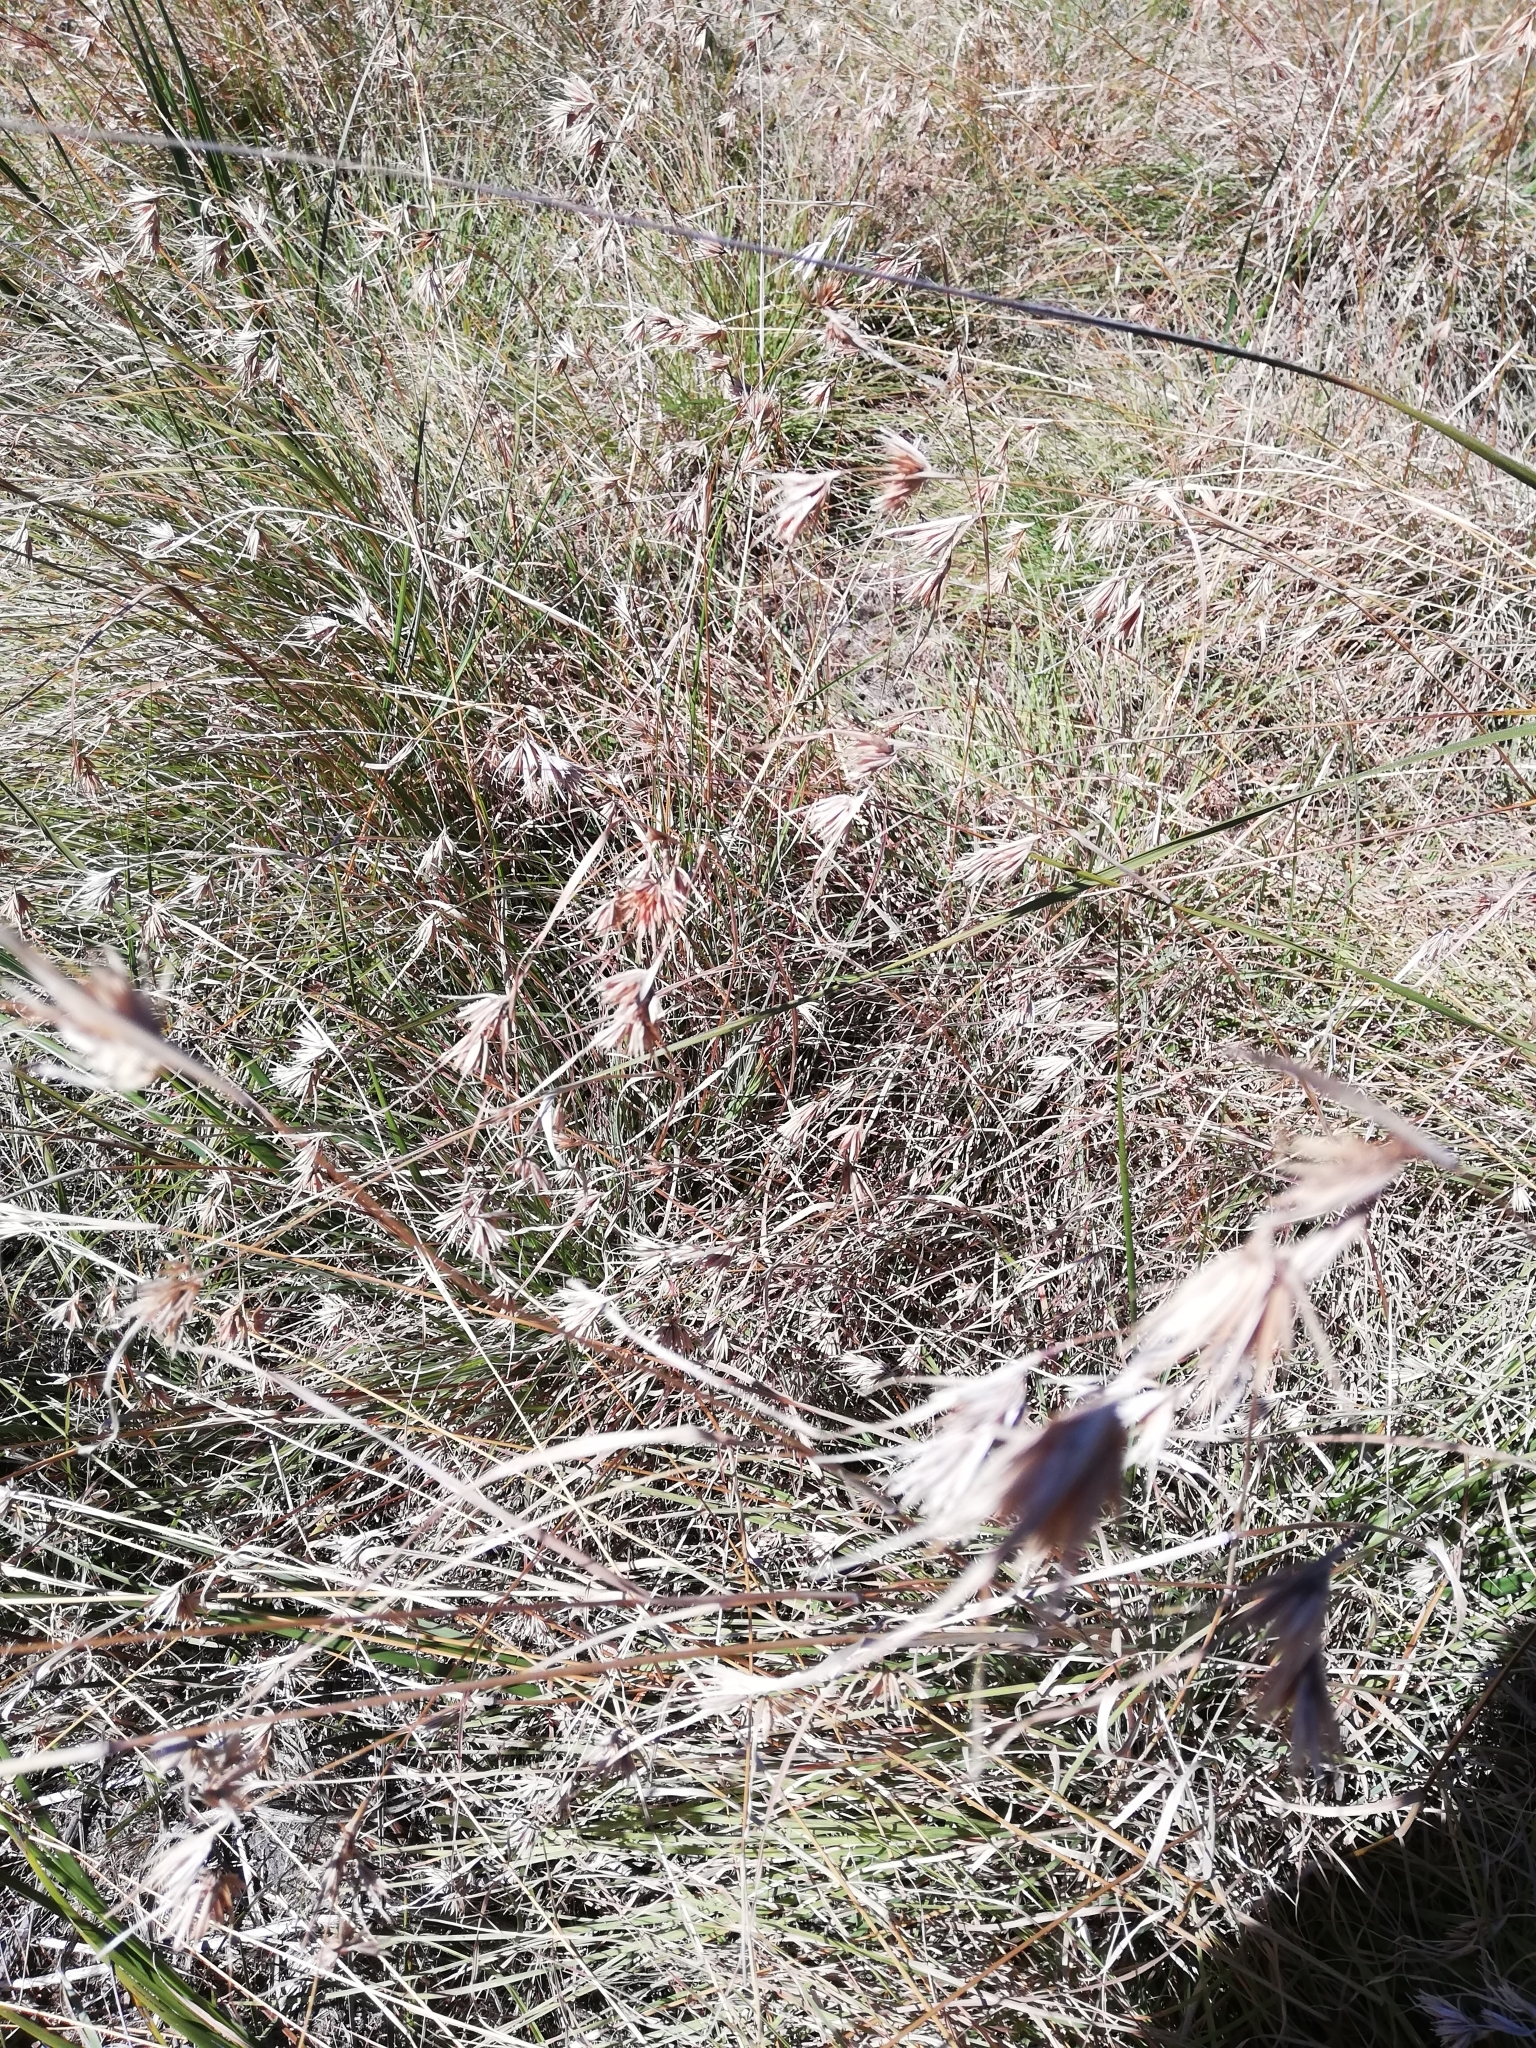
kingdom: Plantae
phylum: Tracheophyta
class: Liliopsida
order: Poales
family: Poaceae
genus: Themeda
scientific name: Themeda triandra
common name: Kangaroo grass
